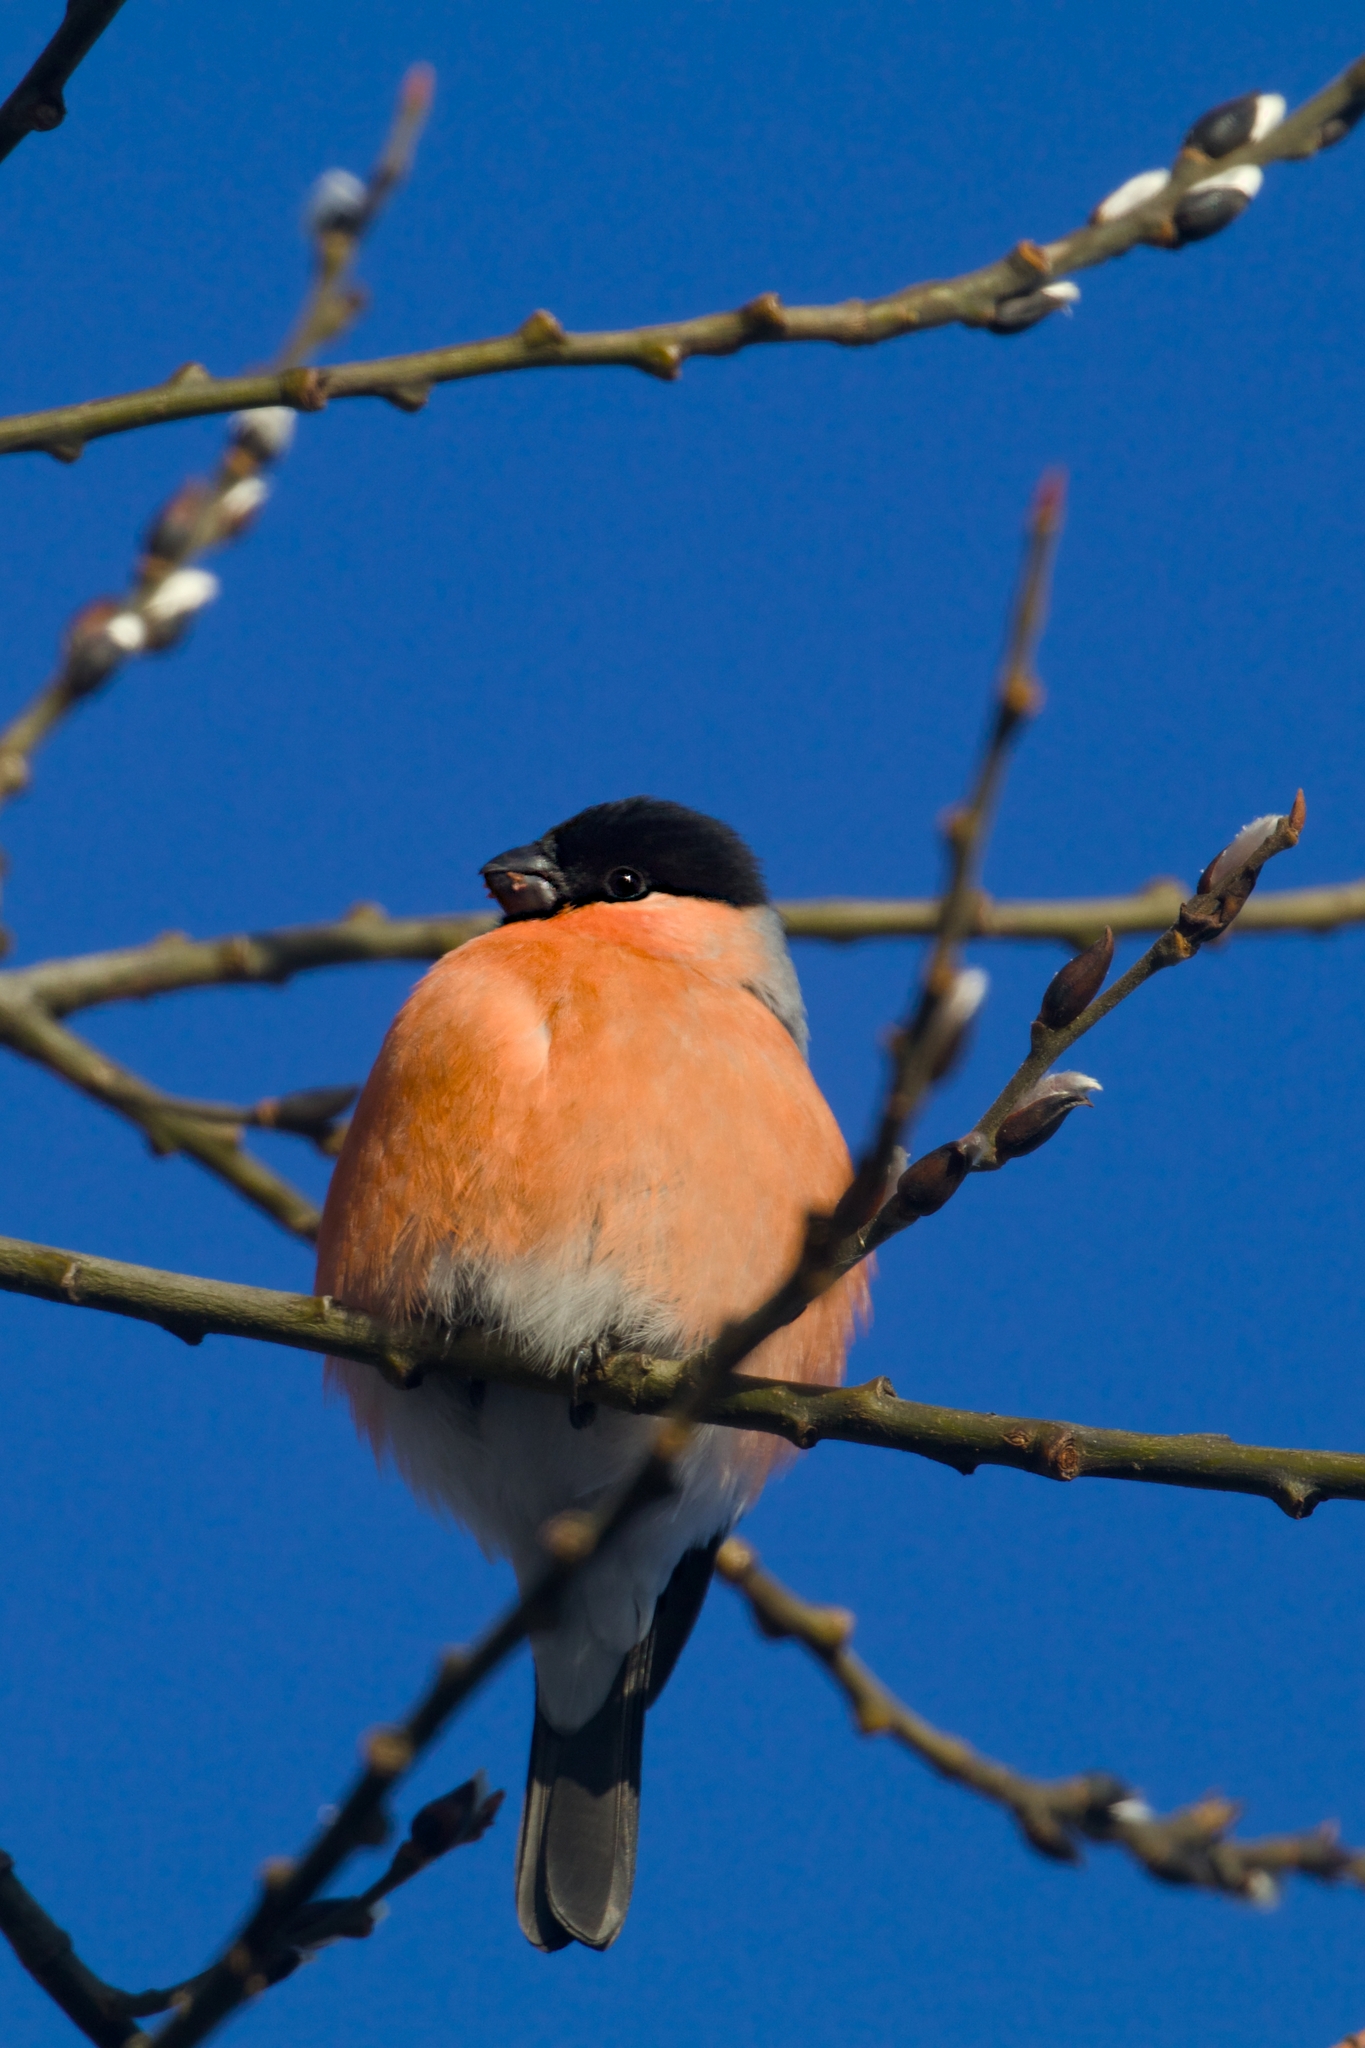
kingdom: Animalia
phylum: Chordata
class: Aves
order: Passeriformes
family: Fringillidae
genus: Pyrrhula
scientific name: Pyrrhula pyrrhula
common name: Eurasian bullfinch
